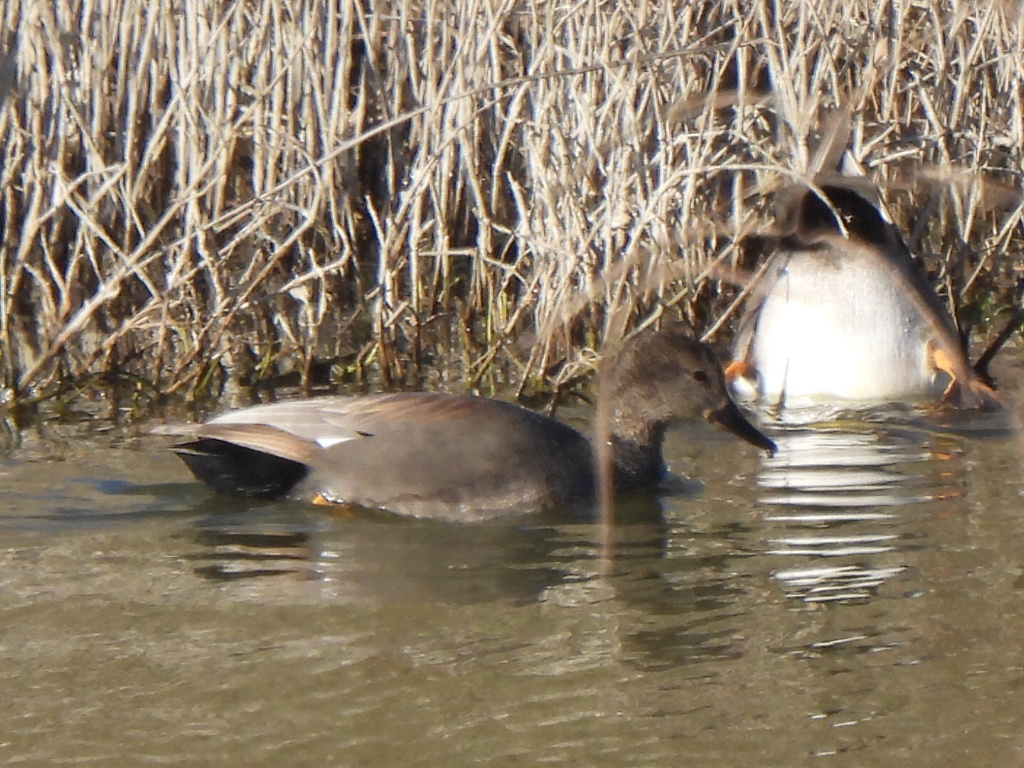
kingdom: Animalia
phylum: Chordata
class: Aves
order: Anseriformes
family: Anatidae
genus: Mareca
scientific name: Mareca strepera
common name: Gadwall
